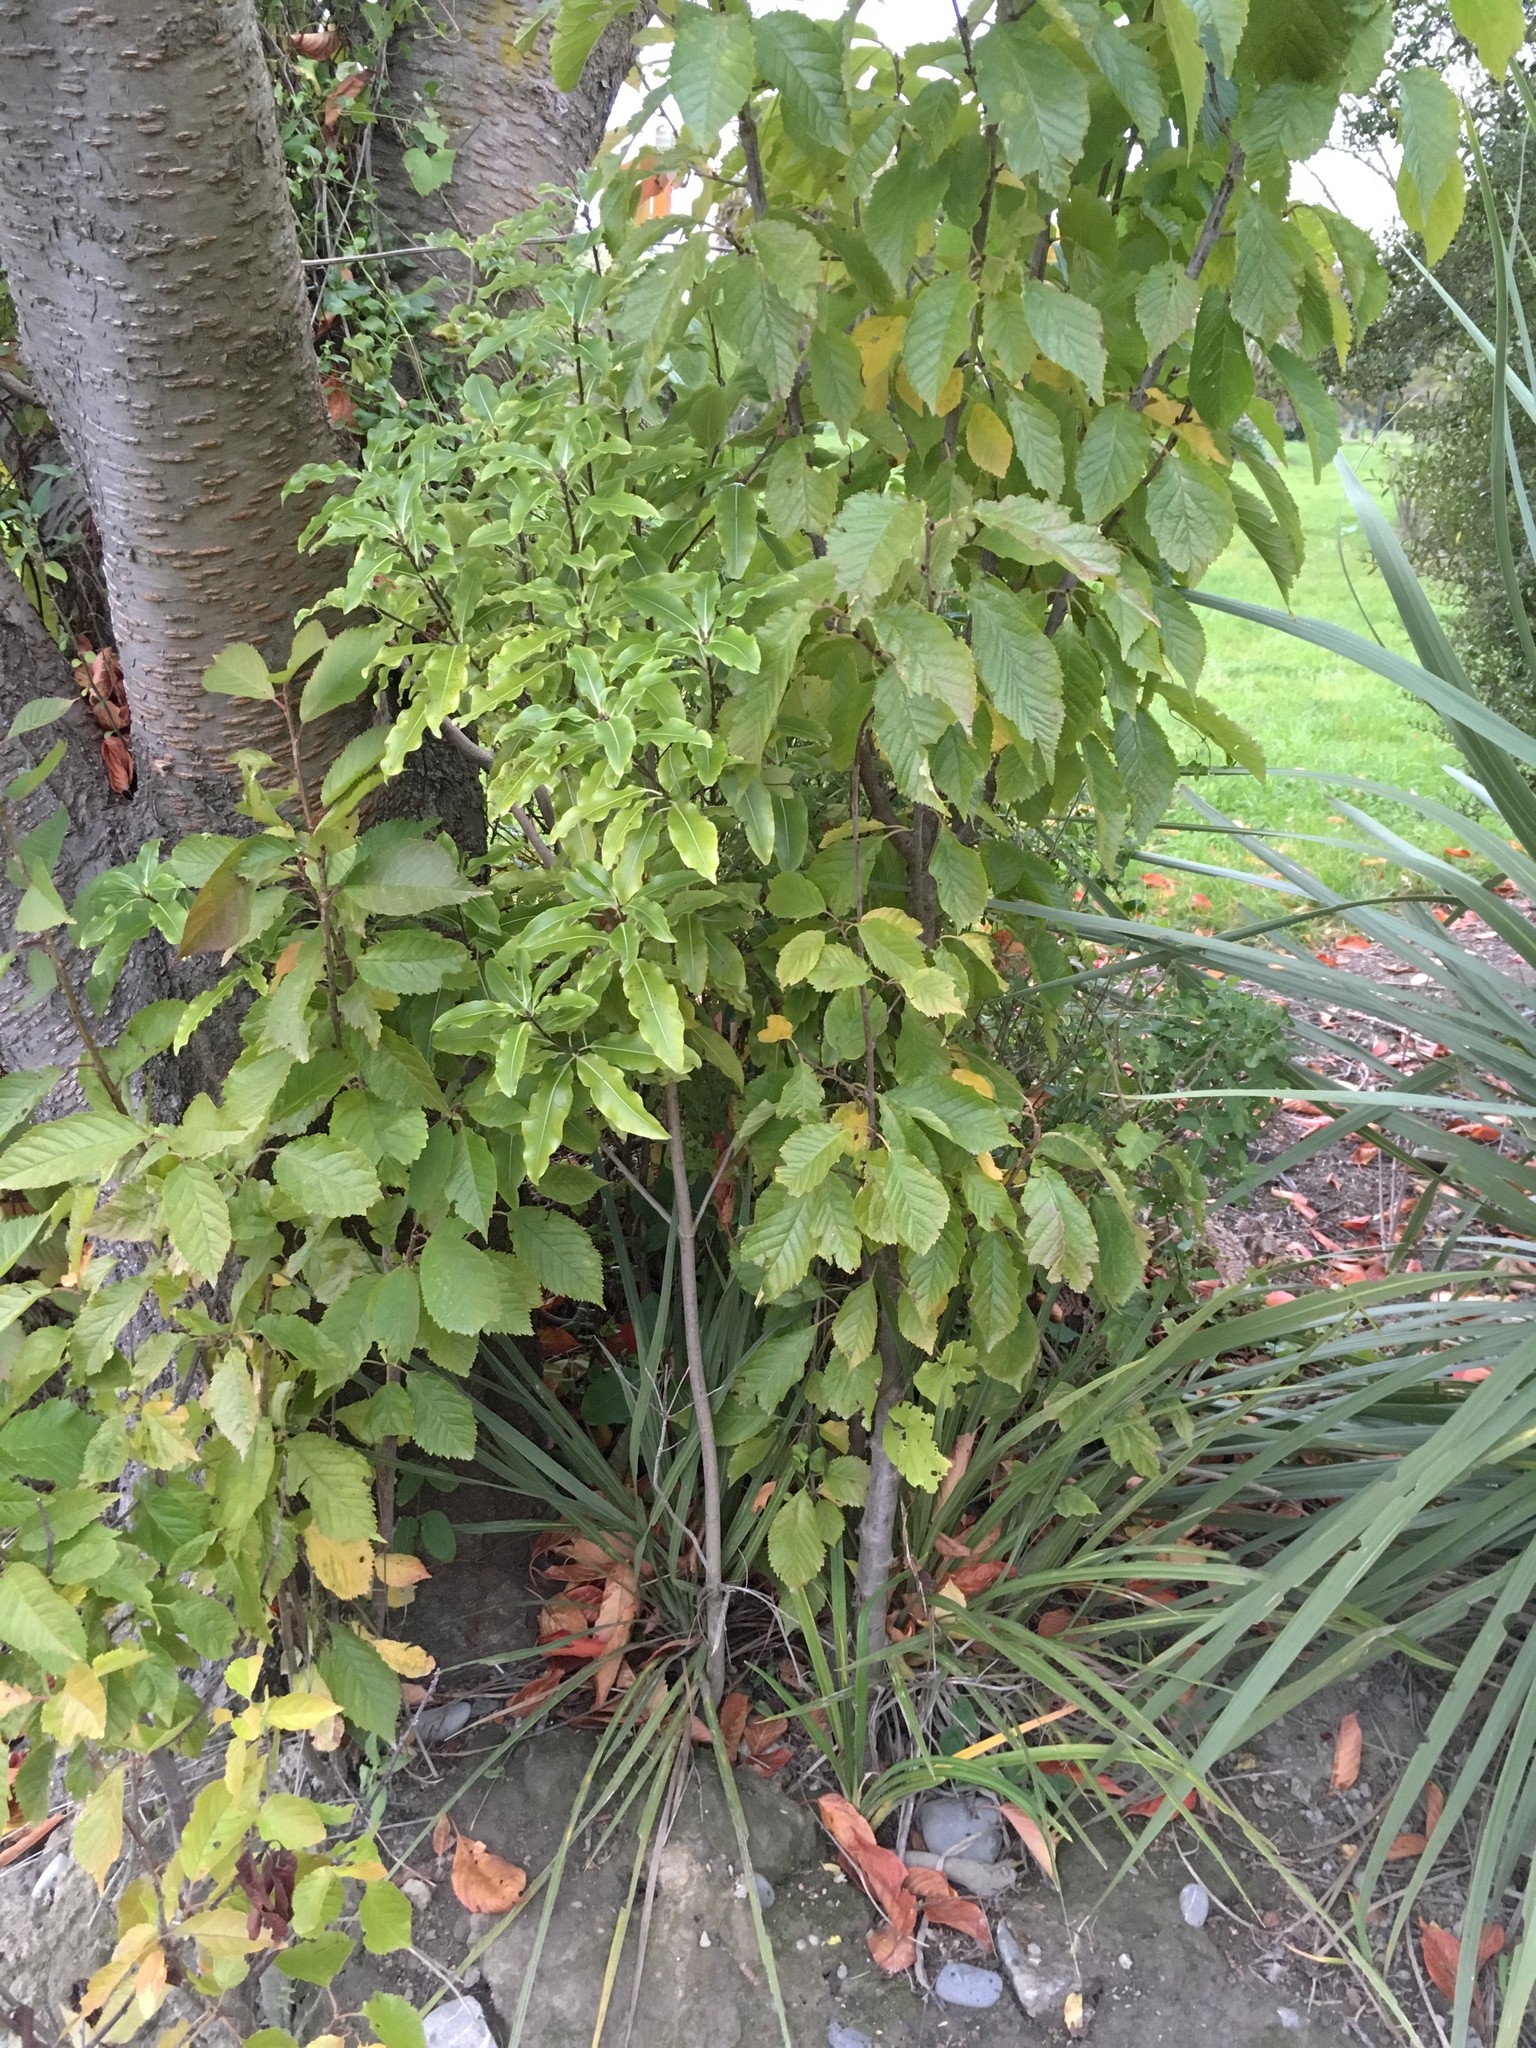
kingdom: Plantae
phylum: Tracheophyta
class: Magnoliopsida
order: Apiales
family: Pittosporaceae
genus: Pittosporum
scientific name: Pittosporum eugenioides
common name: Lemonwood
